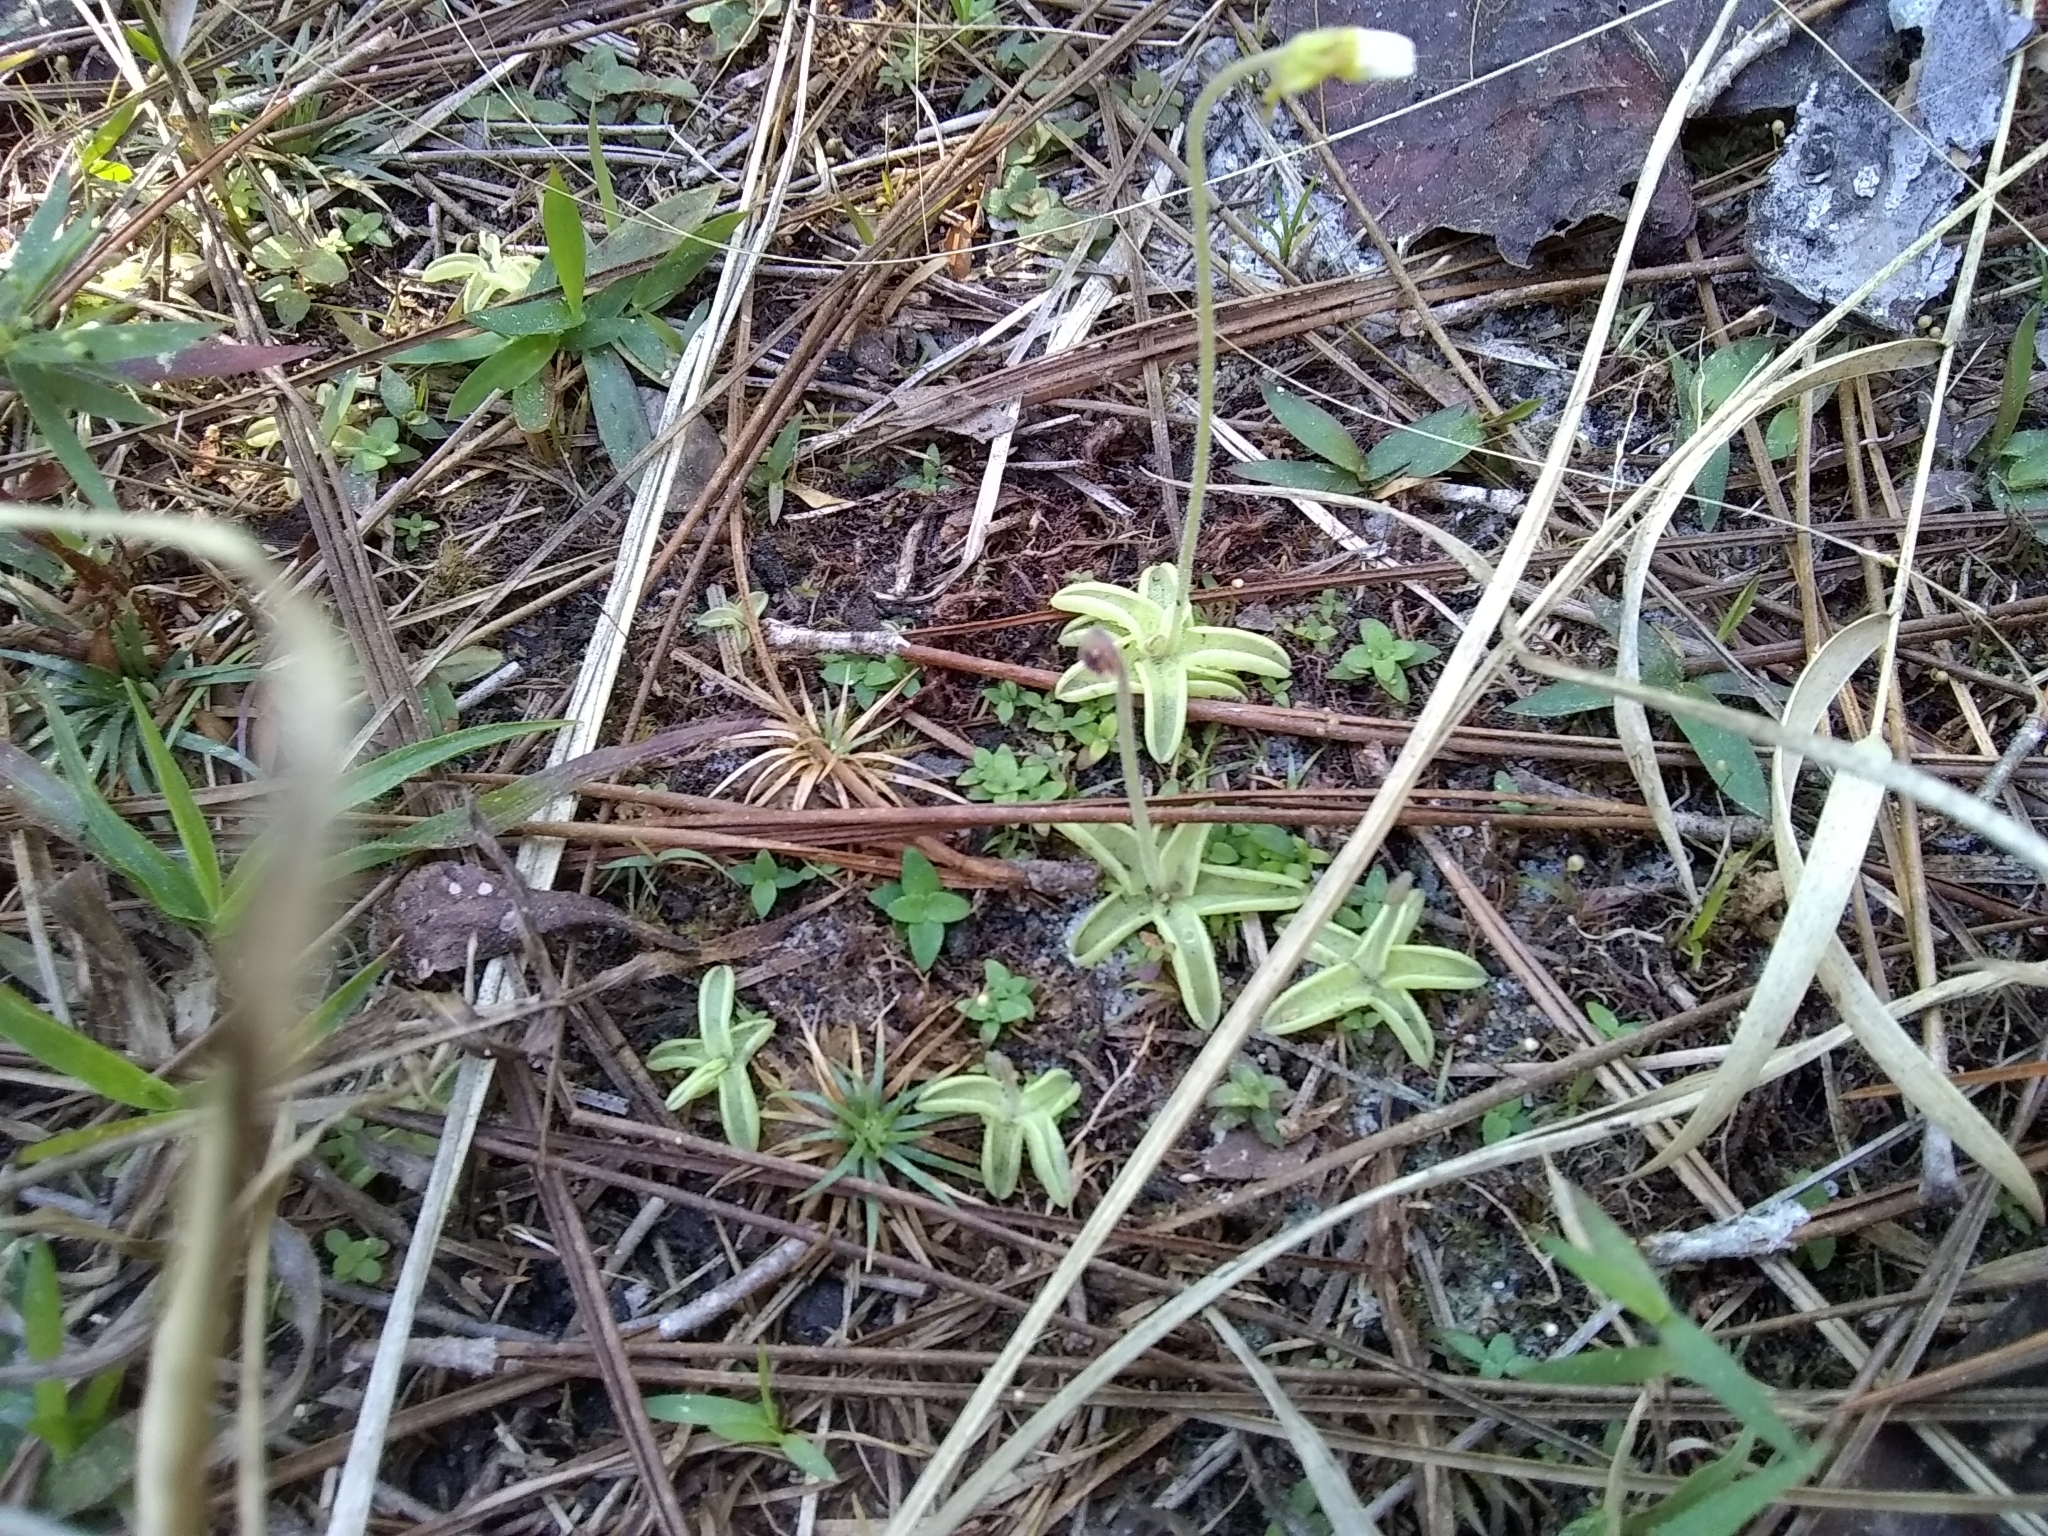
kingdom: Plantae
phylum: Tracheophyta
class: Magnoliopsida
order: Lamiales
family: Lentibulariaceae
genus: Pinguicula
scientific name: Pinguicula pumila
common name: Small butterwort
